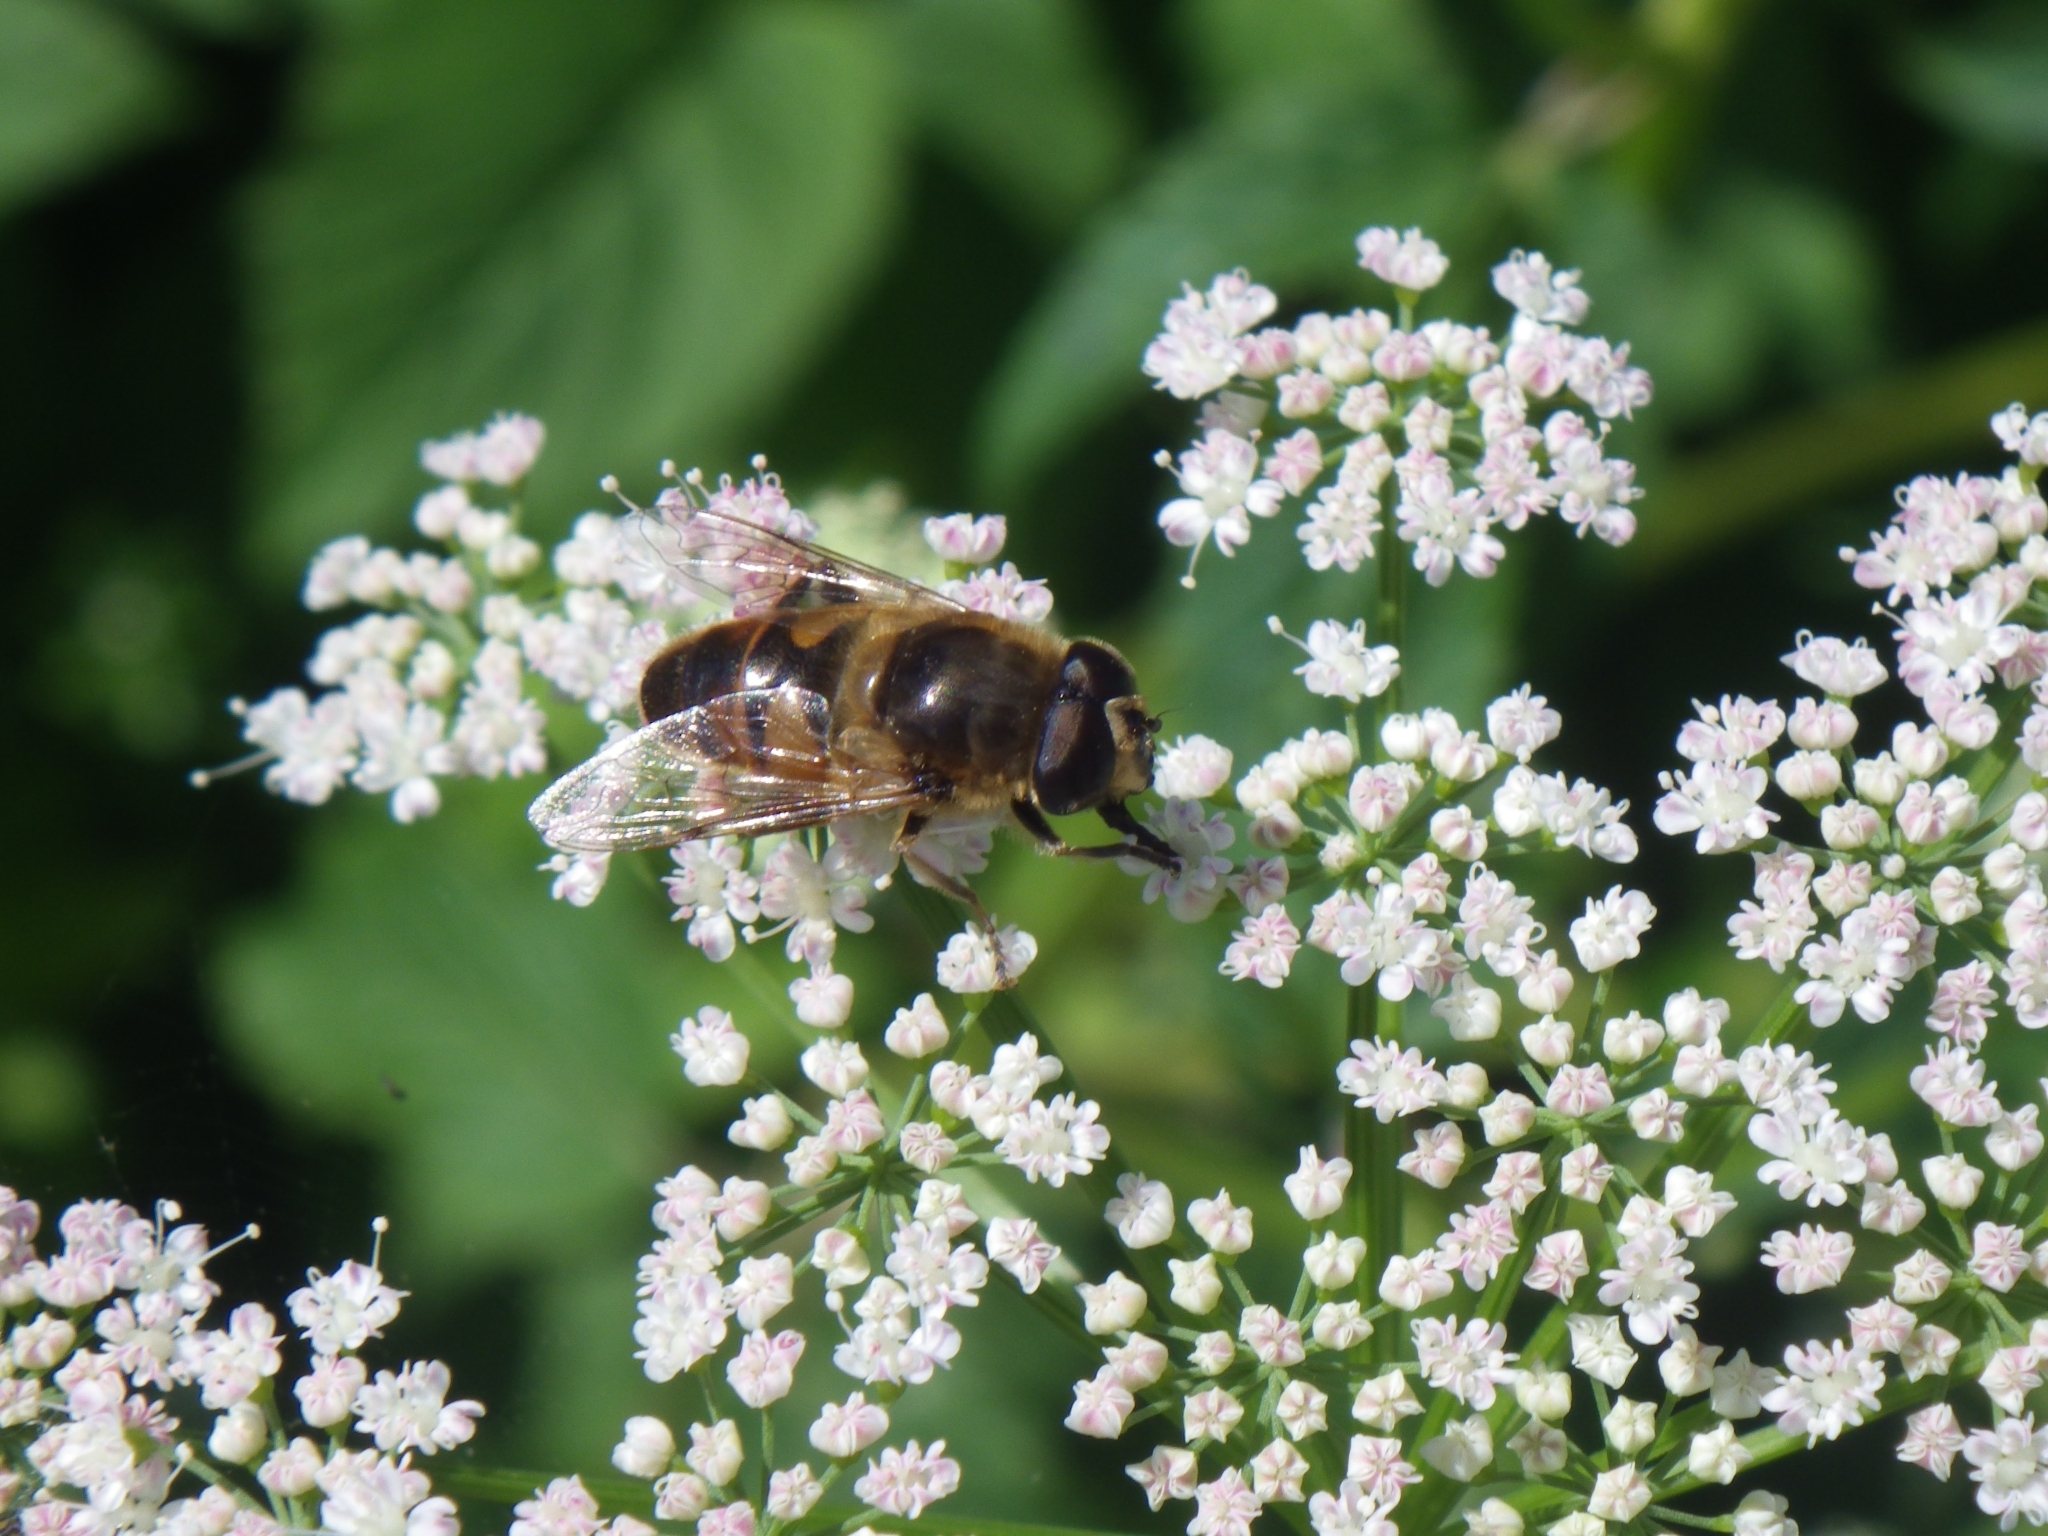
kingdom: Animalia
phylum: Arthropoda
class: Insecta
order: Diptera
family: Syrphidae
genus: Eristalis
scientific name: Eristalis tenax
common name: Drone fly
